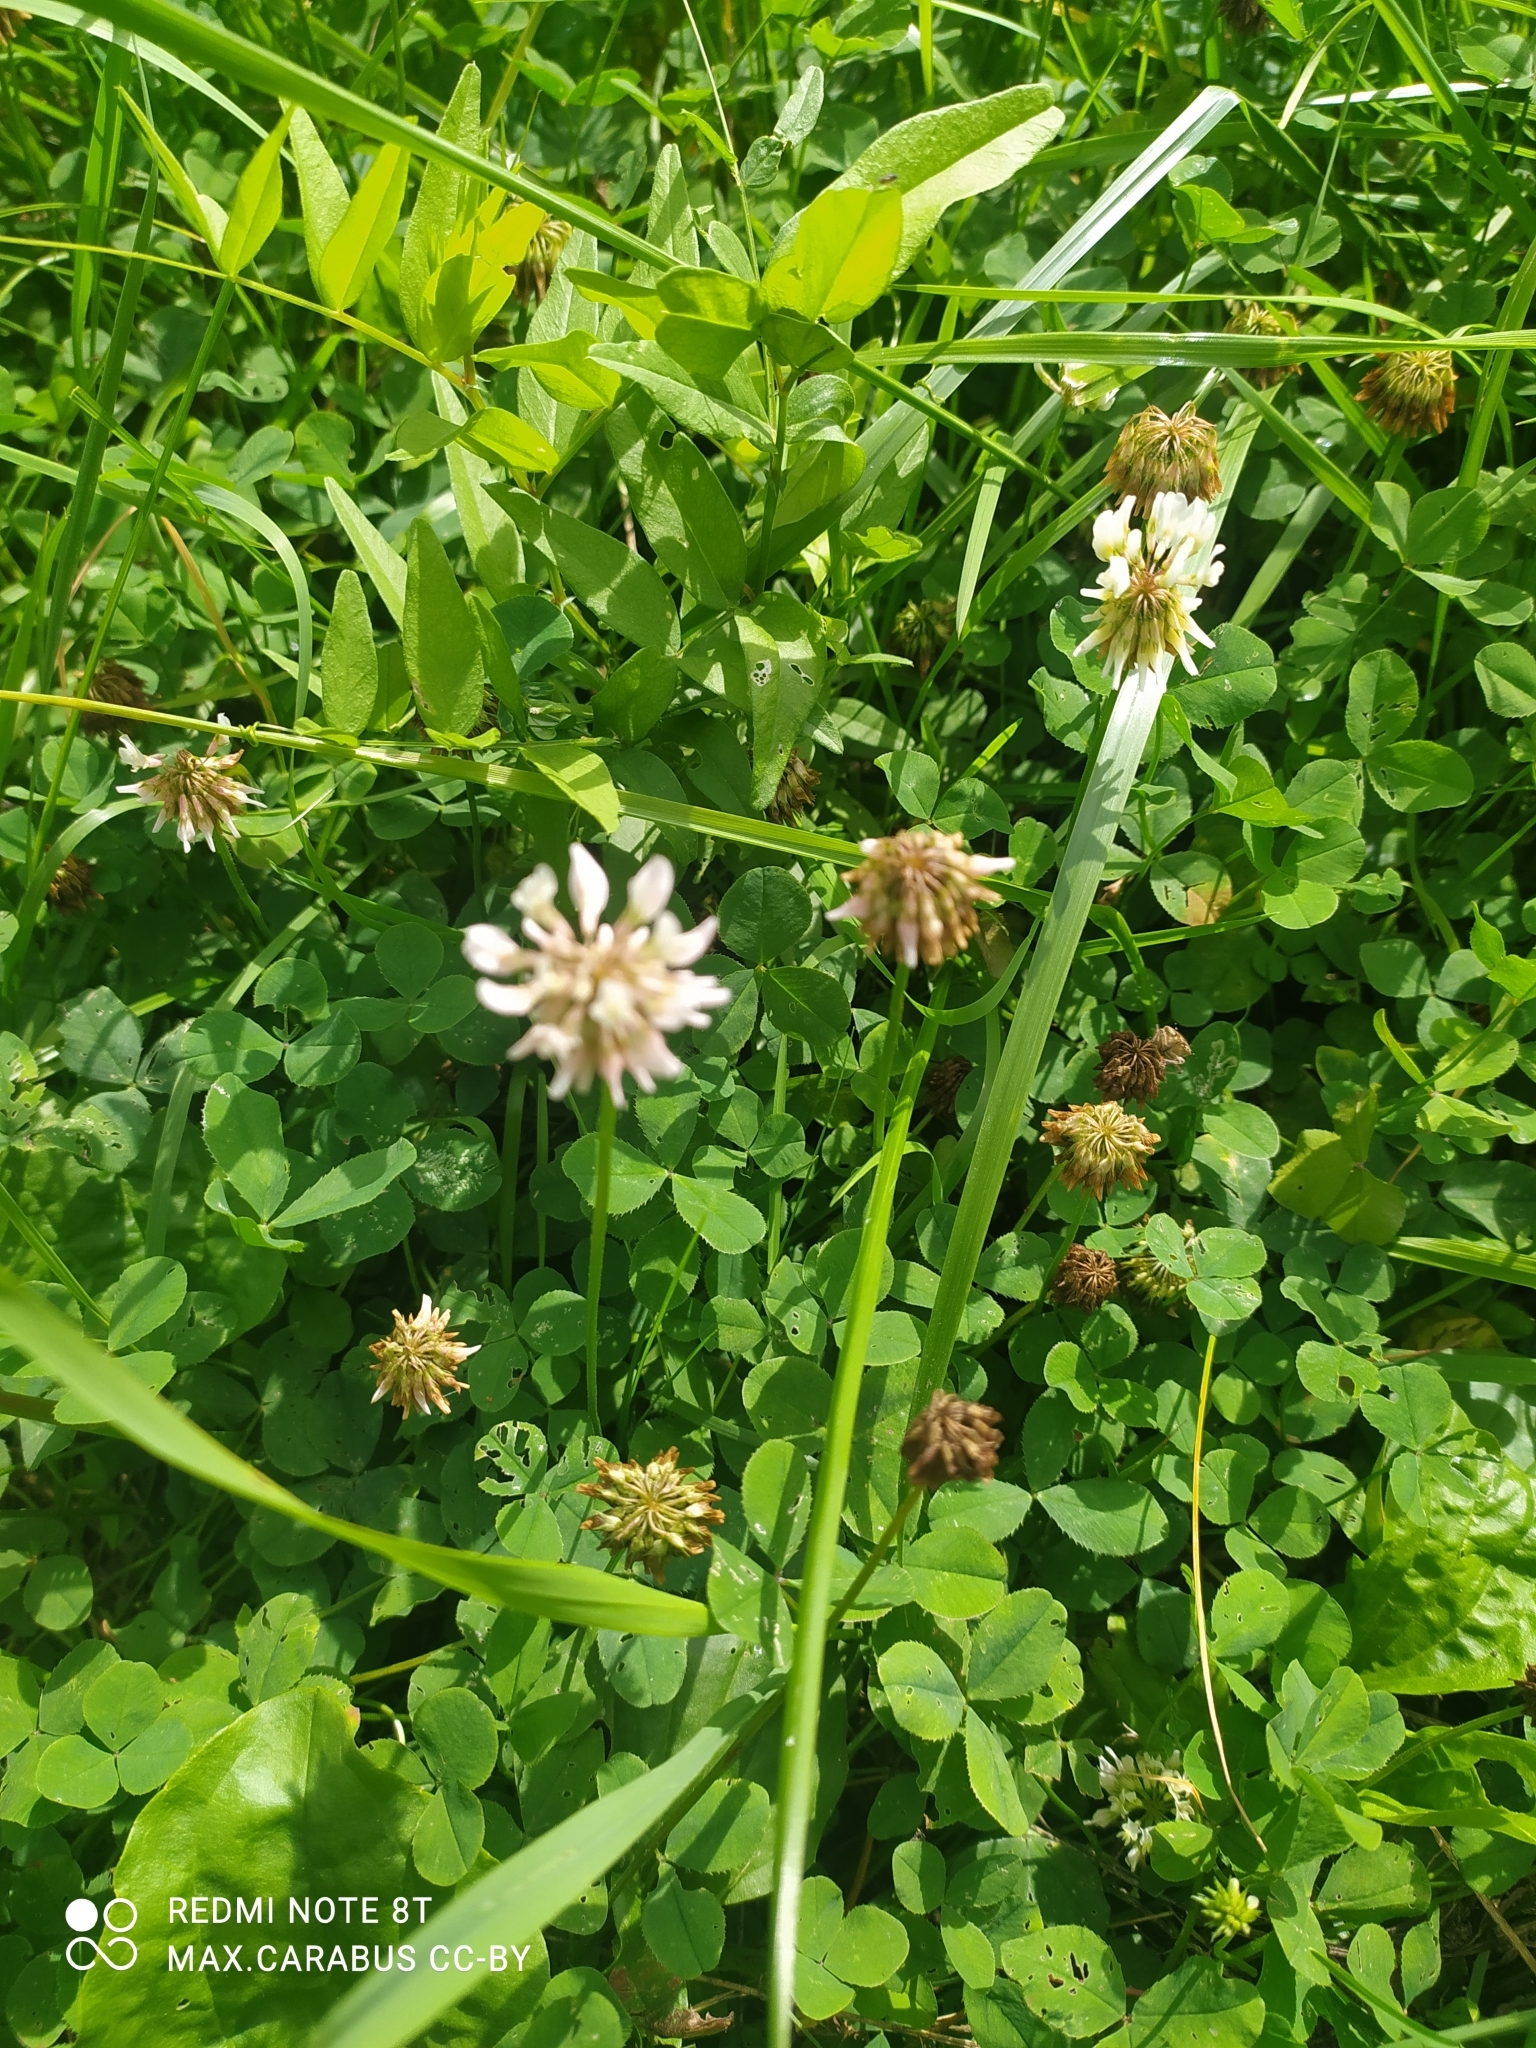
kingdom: Plantae
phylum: Tracheophyta
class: Magnoliopsida
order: Fabales
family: Fabaceae
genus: Trifolium
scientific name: Trifolium repens
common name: White clover
